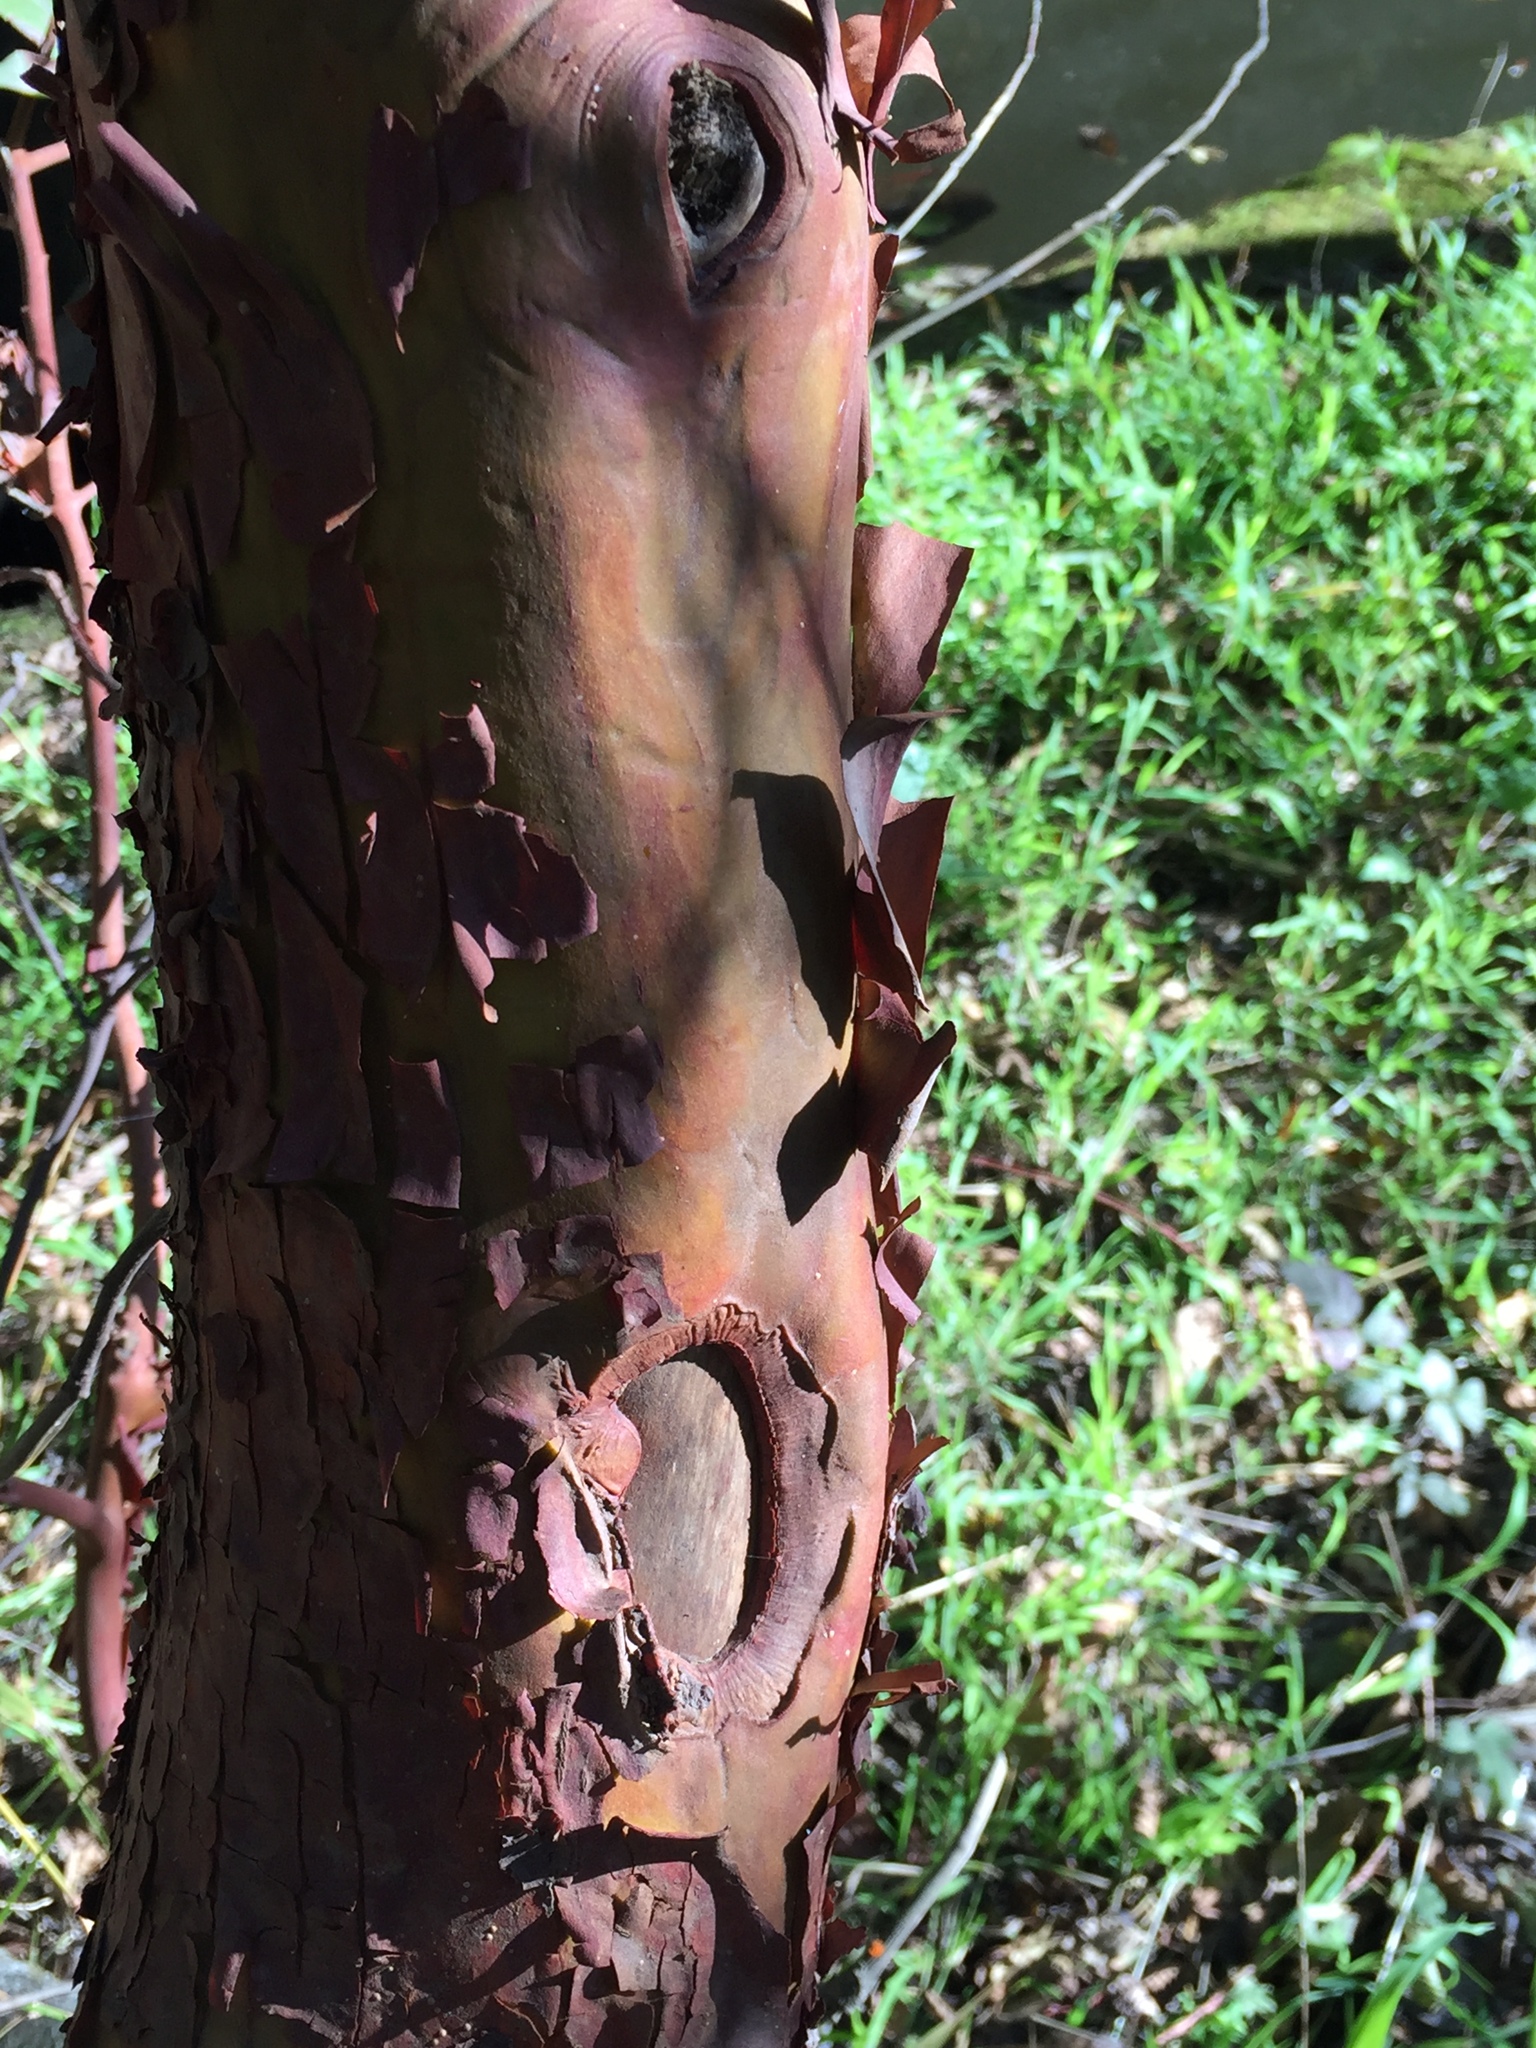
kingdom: Plantae
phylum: Tracheophyta
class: Magnoliopsida
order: Ericales
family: Ericaceae
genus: Arbutus
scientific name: Arbutus menziesii
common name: Pacific madrone
